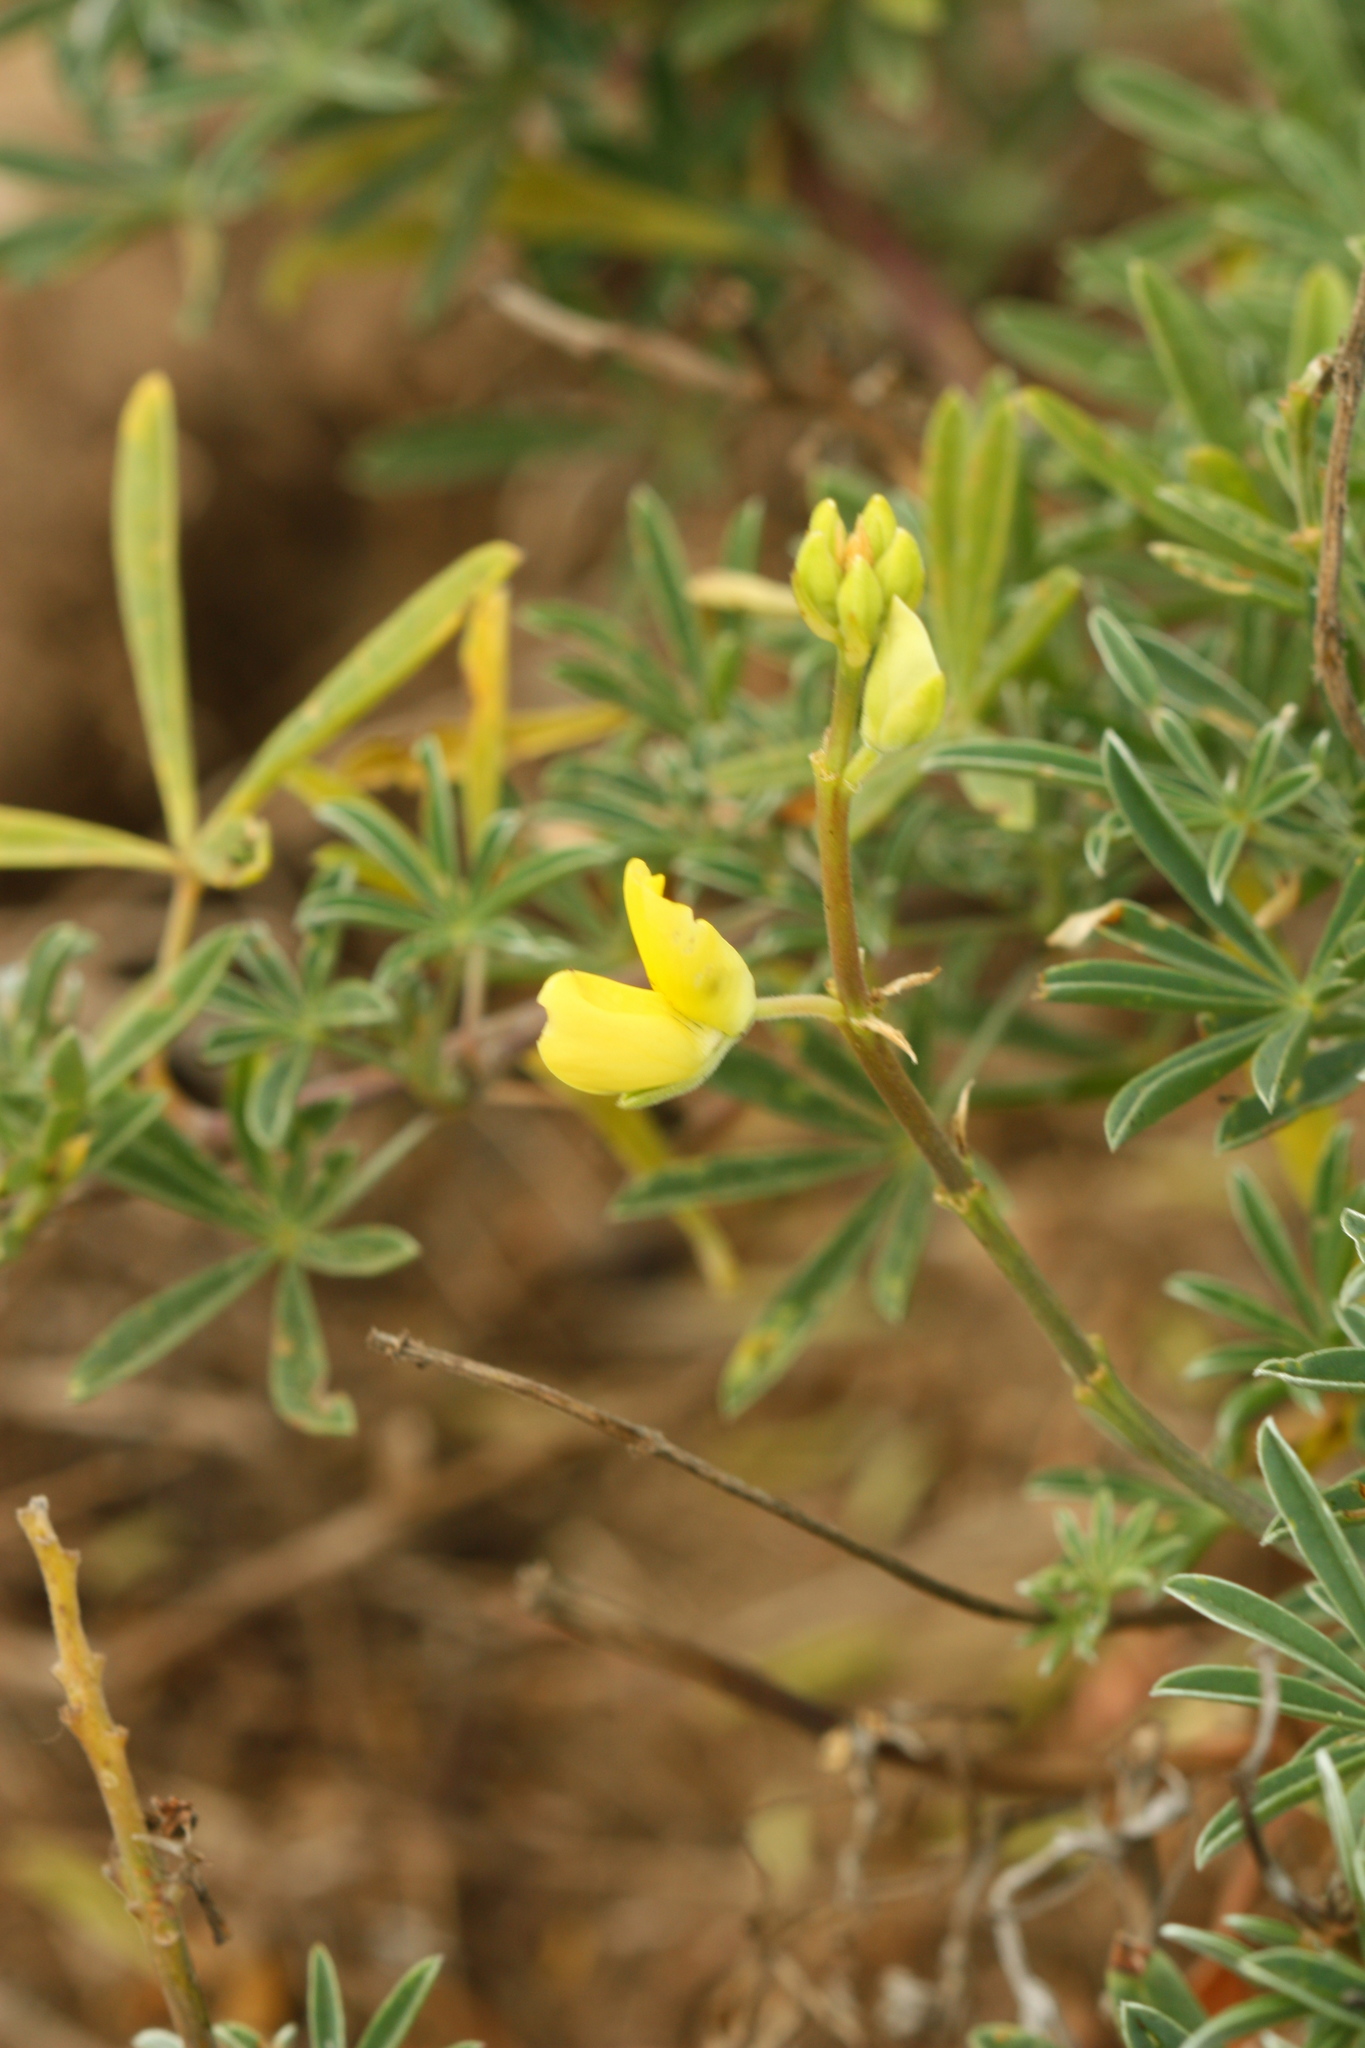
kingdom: Plantae
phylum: Tracheophyta
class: Magnoliopsida
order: Fabales
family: Fabaceae
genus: Lupinus
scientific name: Lupinus arboreus
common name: Yellow bush lupine
